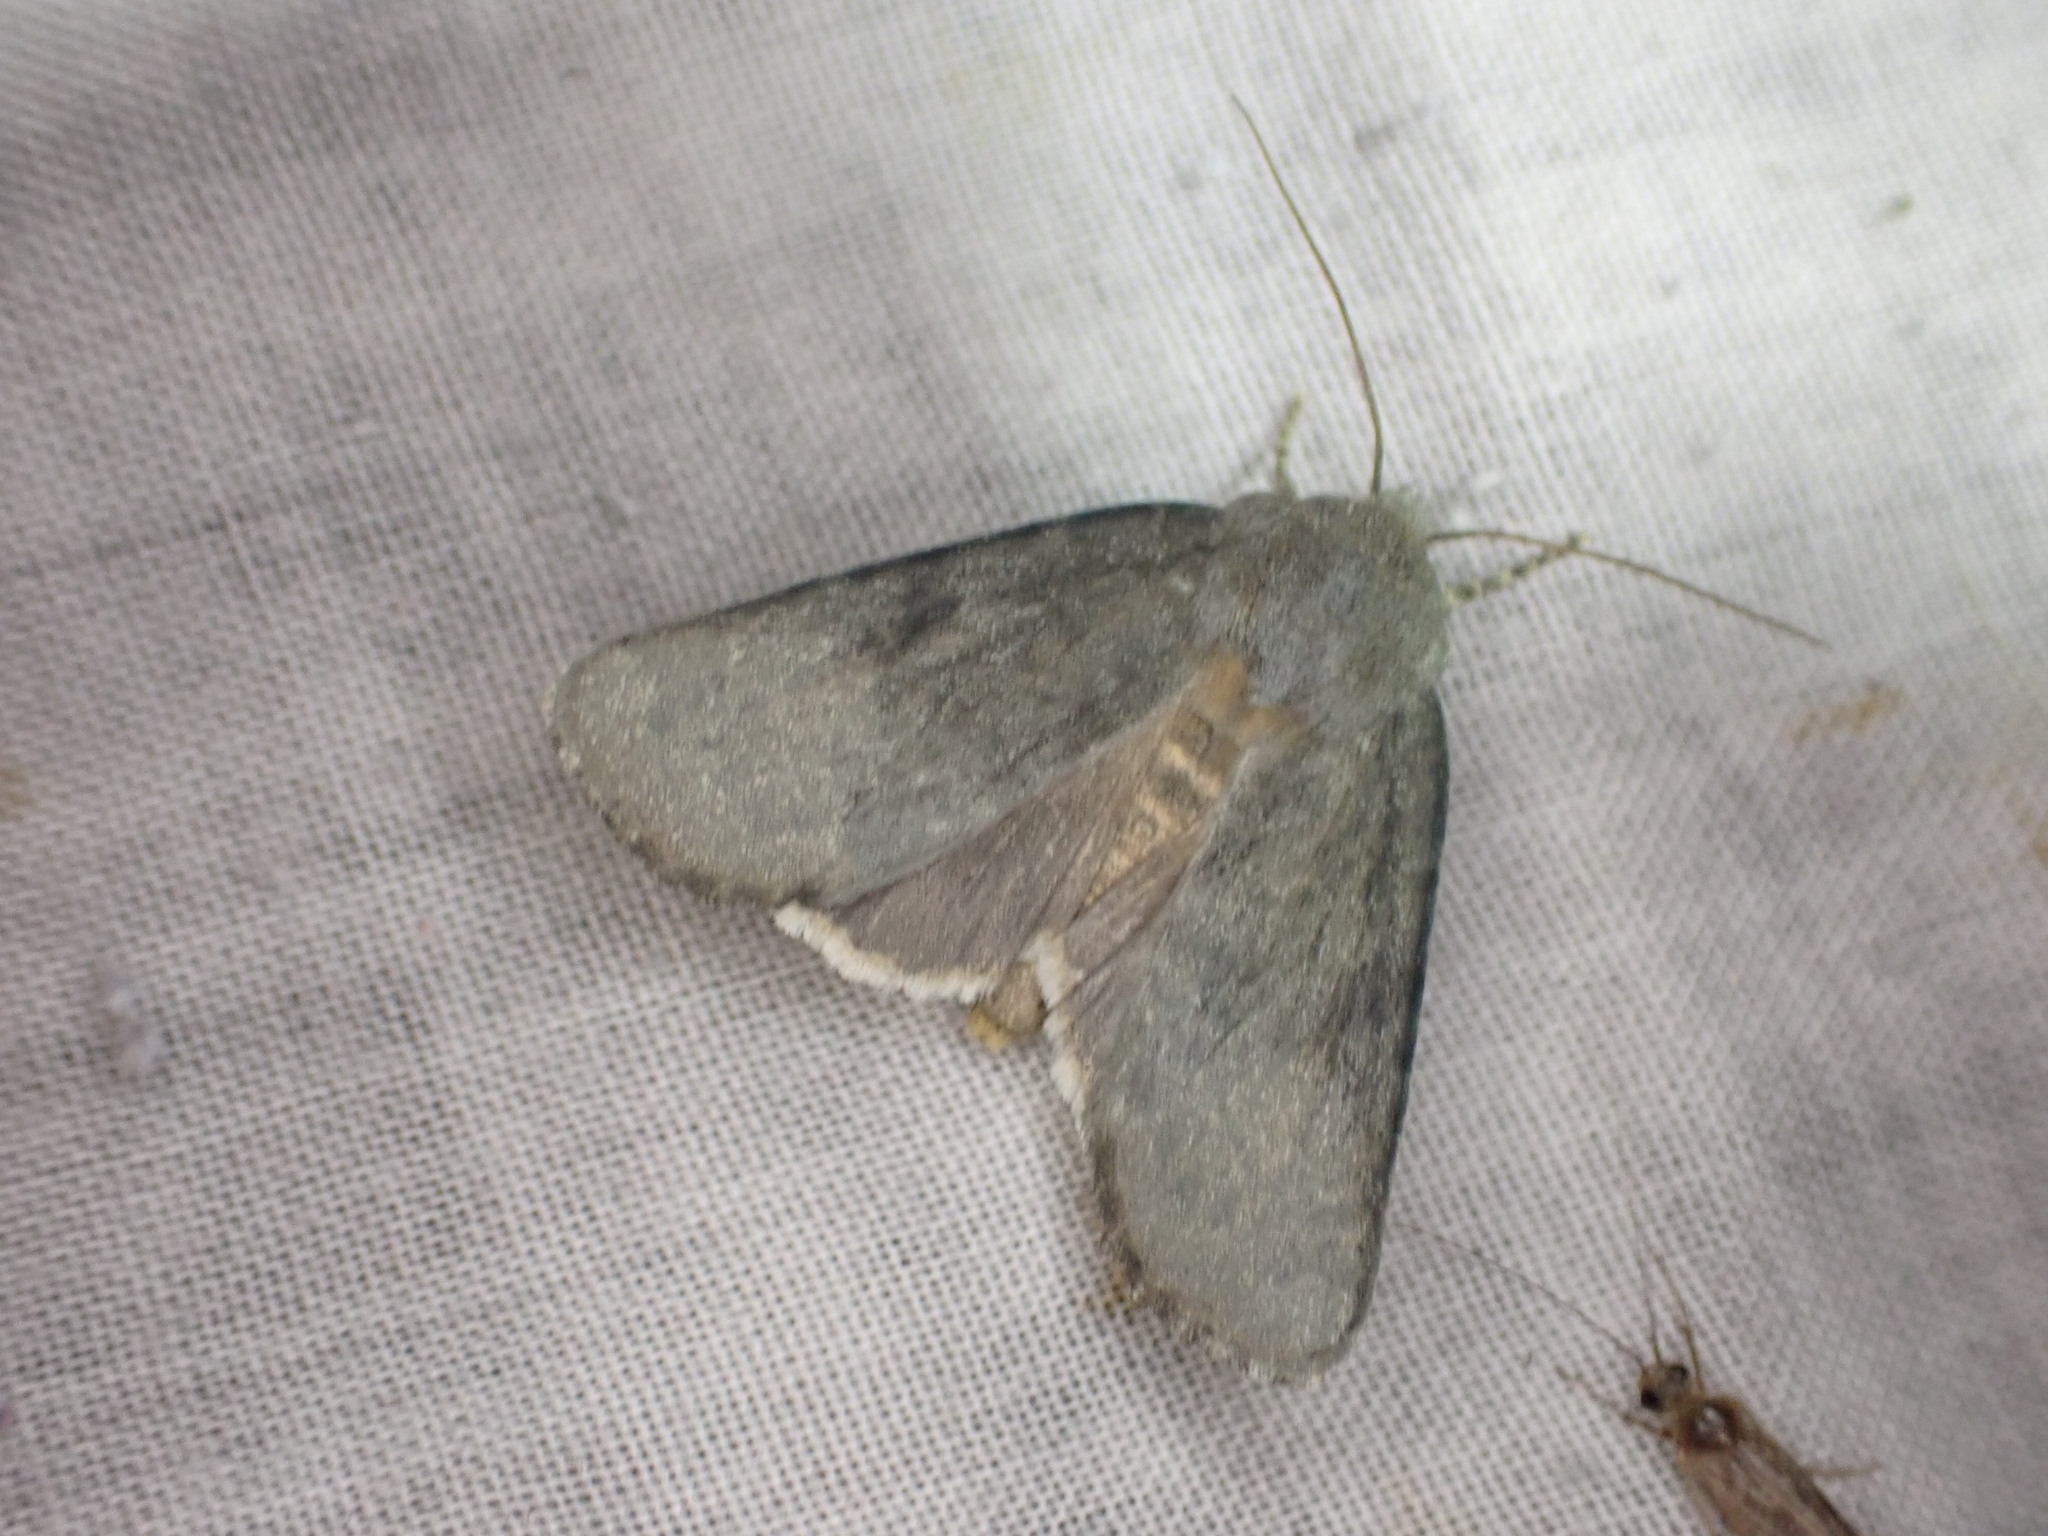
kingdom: Animalia
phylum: Arthropoda
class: Insecta
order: Lepidoptera
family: Noctuidae
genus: Physetica
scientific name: Physetica caerulea
